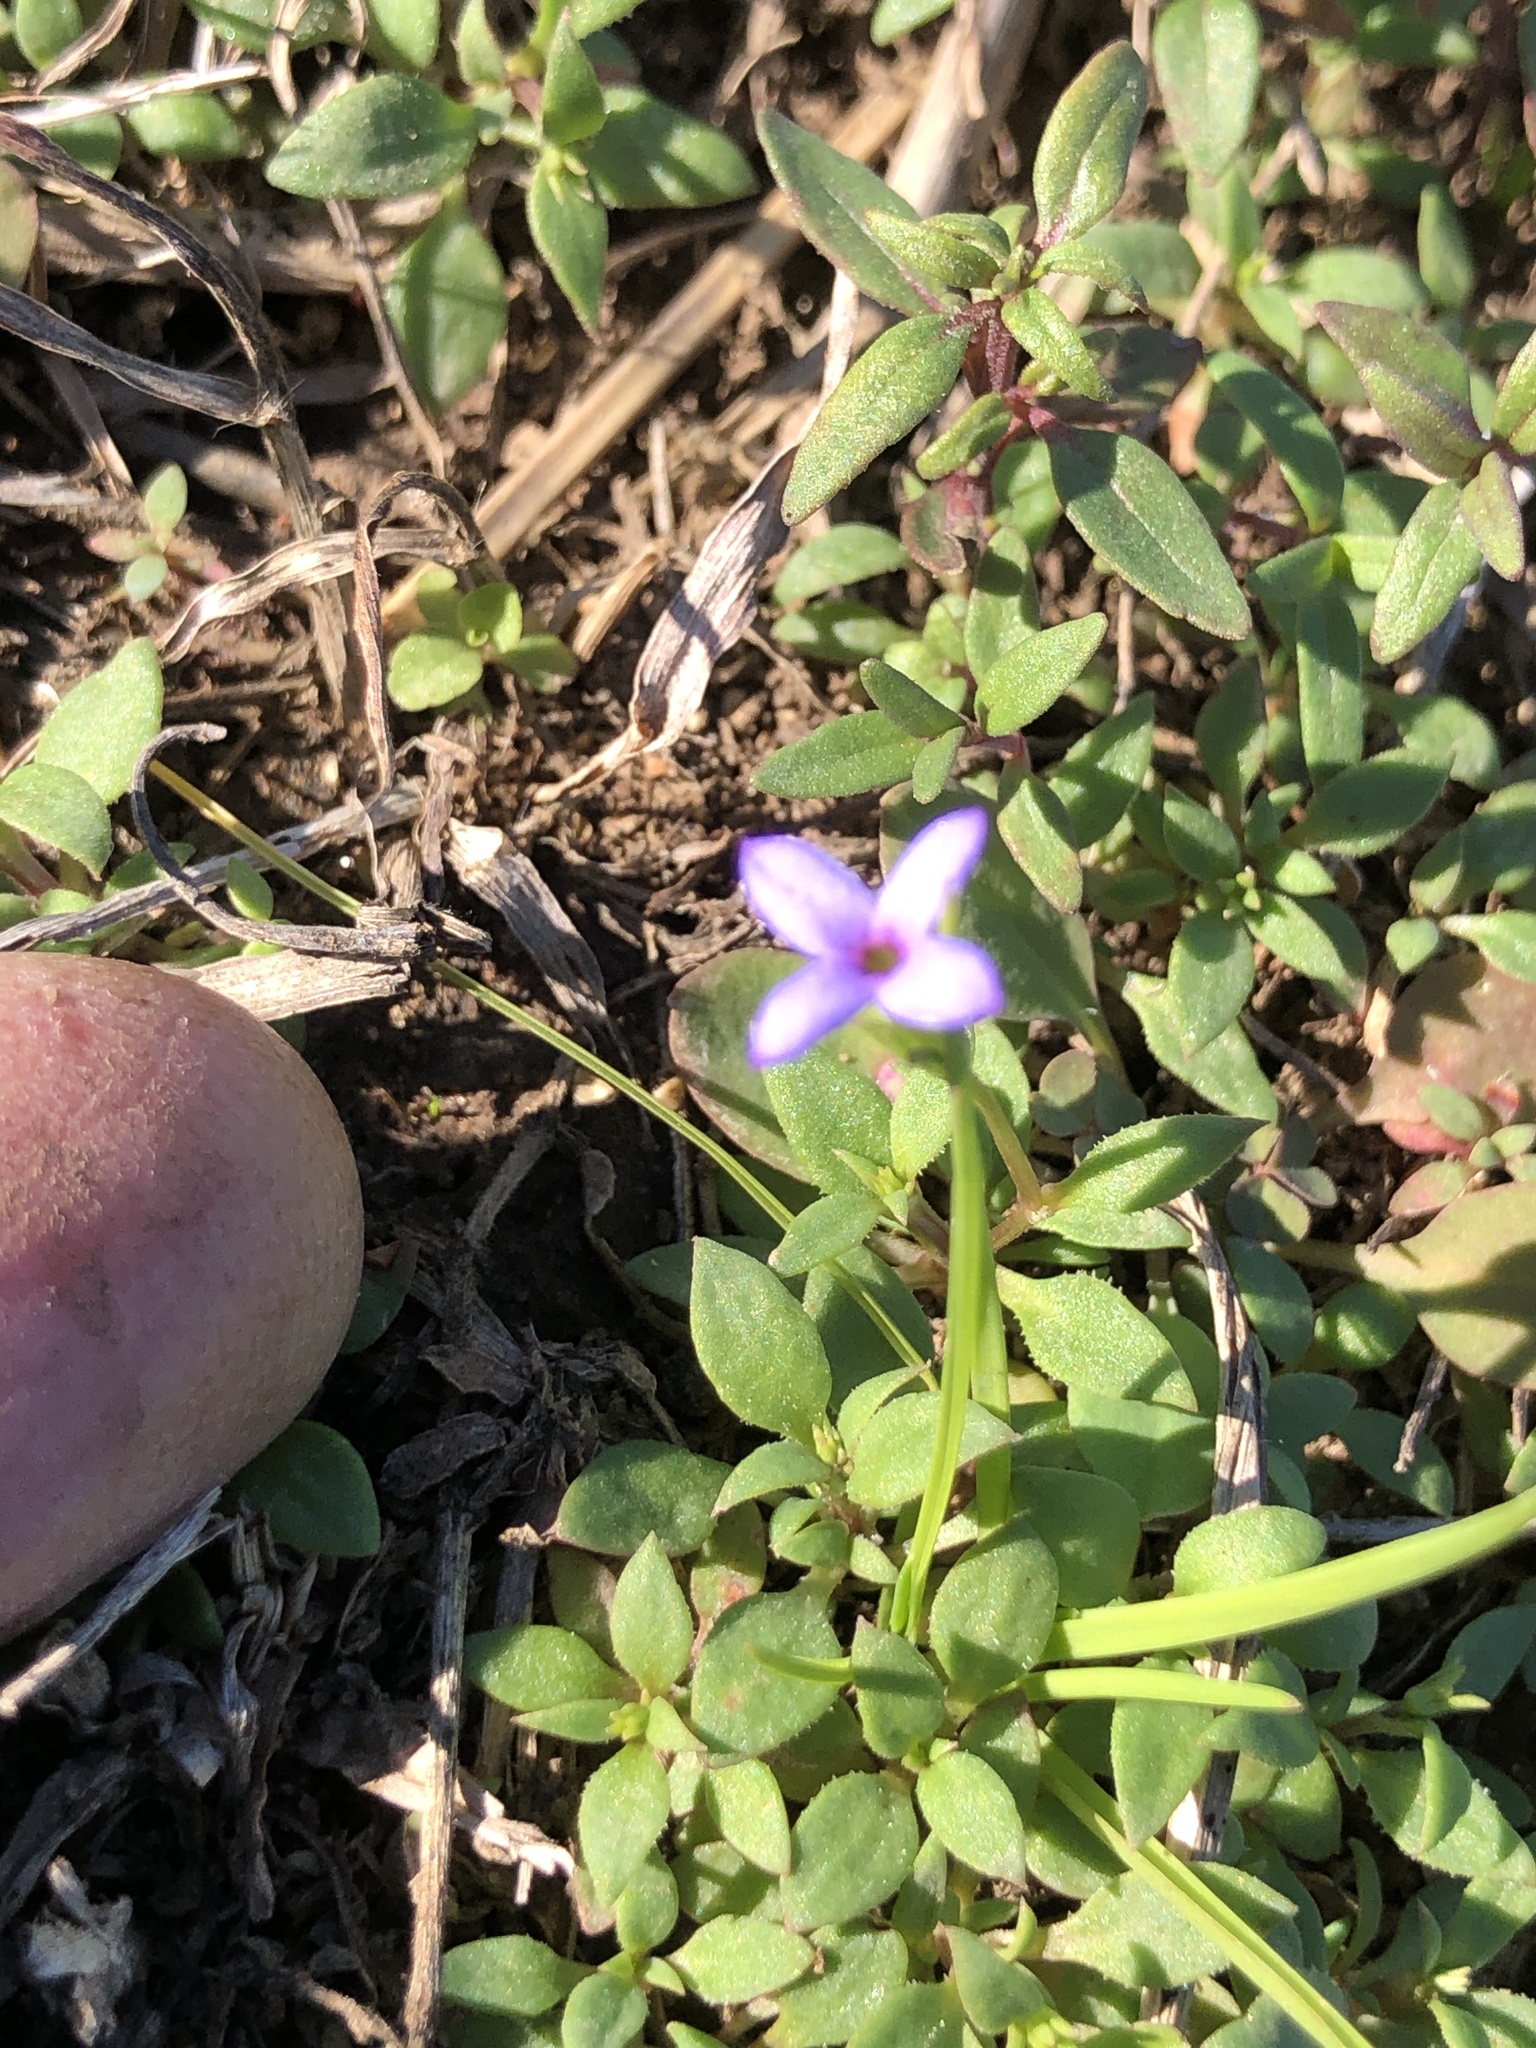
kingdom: Plantae
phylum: Tracheophyta
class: Magnoliopsida
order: Gentianales
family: Rubiaceae
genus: Houstonia
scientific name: Houstonia pusilla
